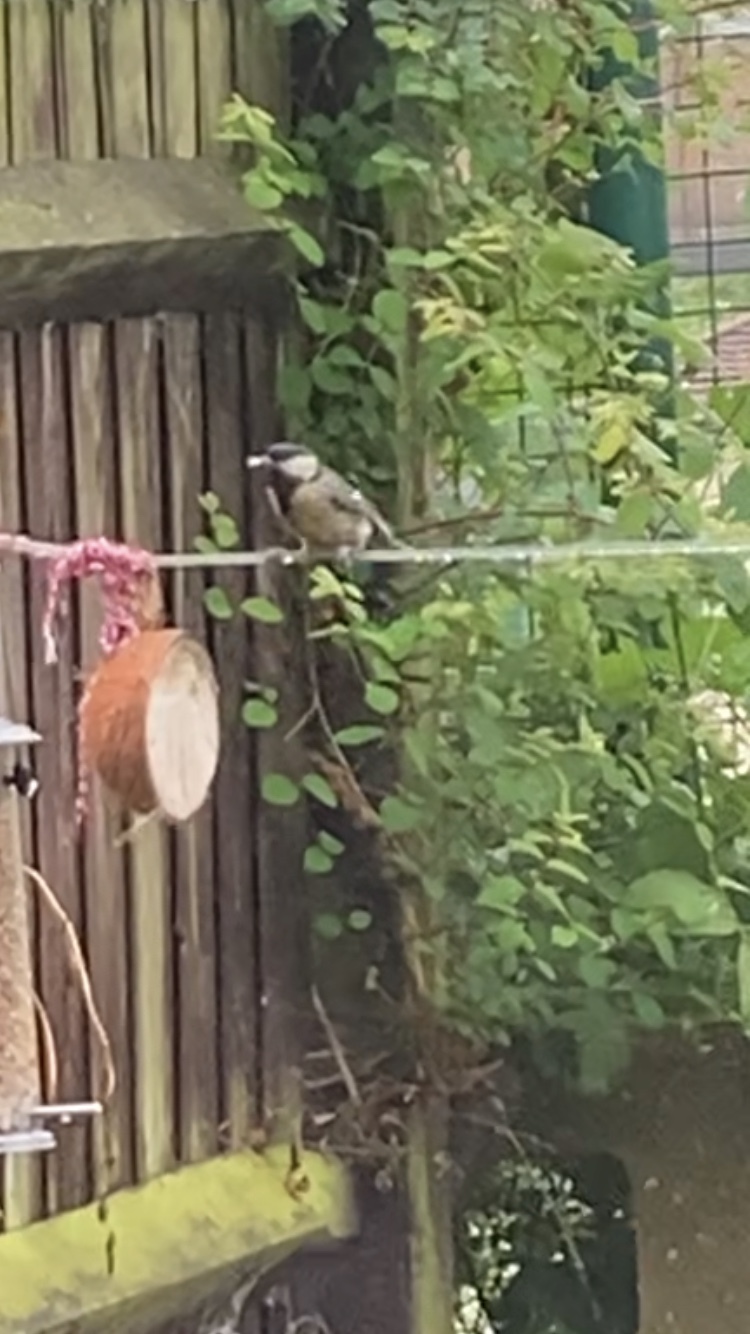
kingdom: Animalia
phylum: Chordata
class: Aves
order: Passeriformes
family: Paridae
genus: Parus
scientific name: Parus major
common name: Great tit
